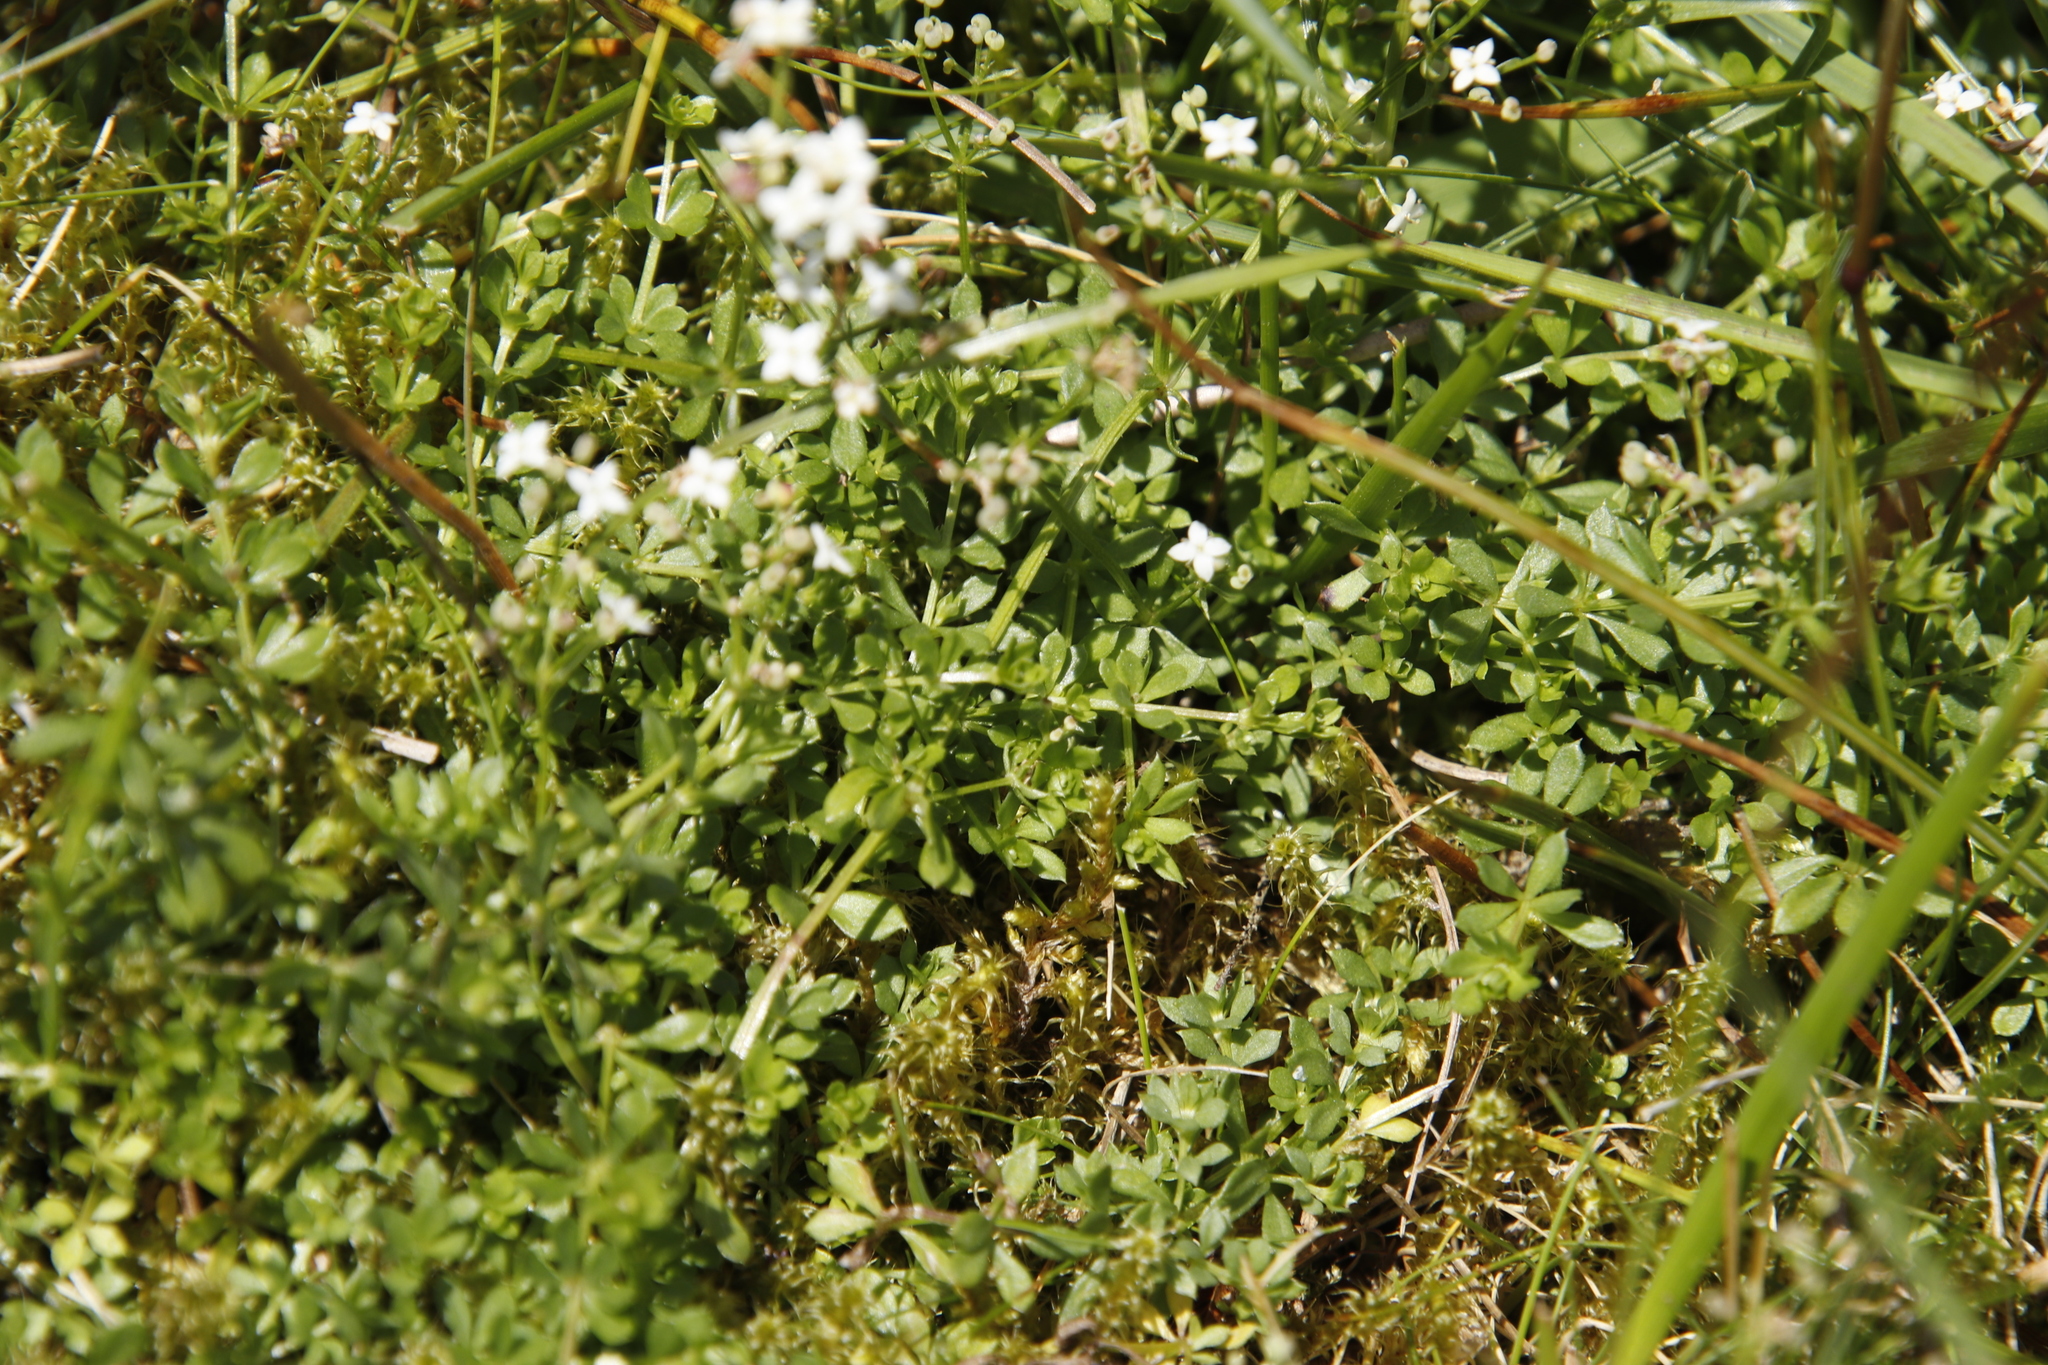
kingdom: Plantae
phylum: Tracheophyta
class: Magnoliopsida
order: Gentianales
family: Rubiaceae
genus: Galium
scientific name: Galium saxatile
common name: Heath bedstraw
